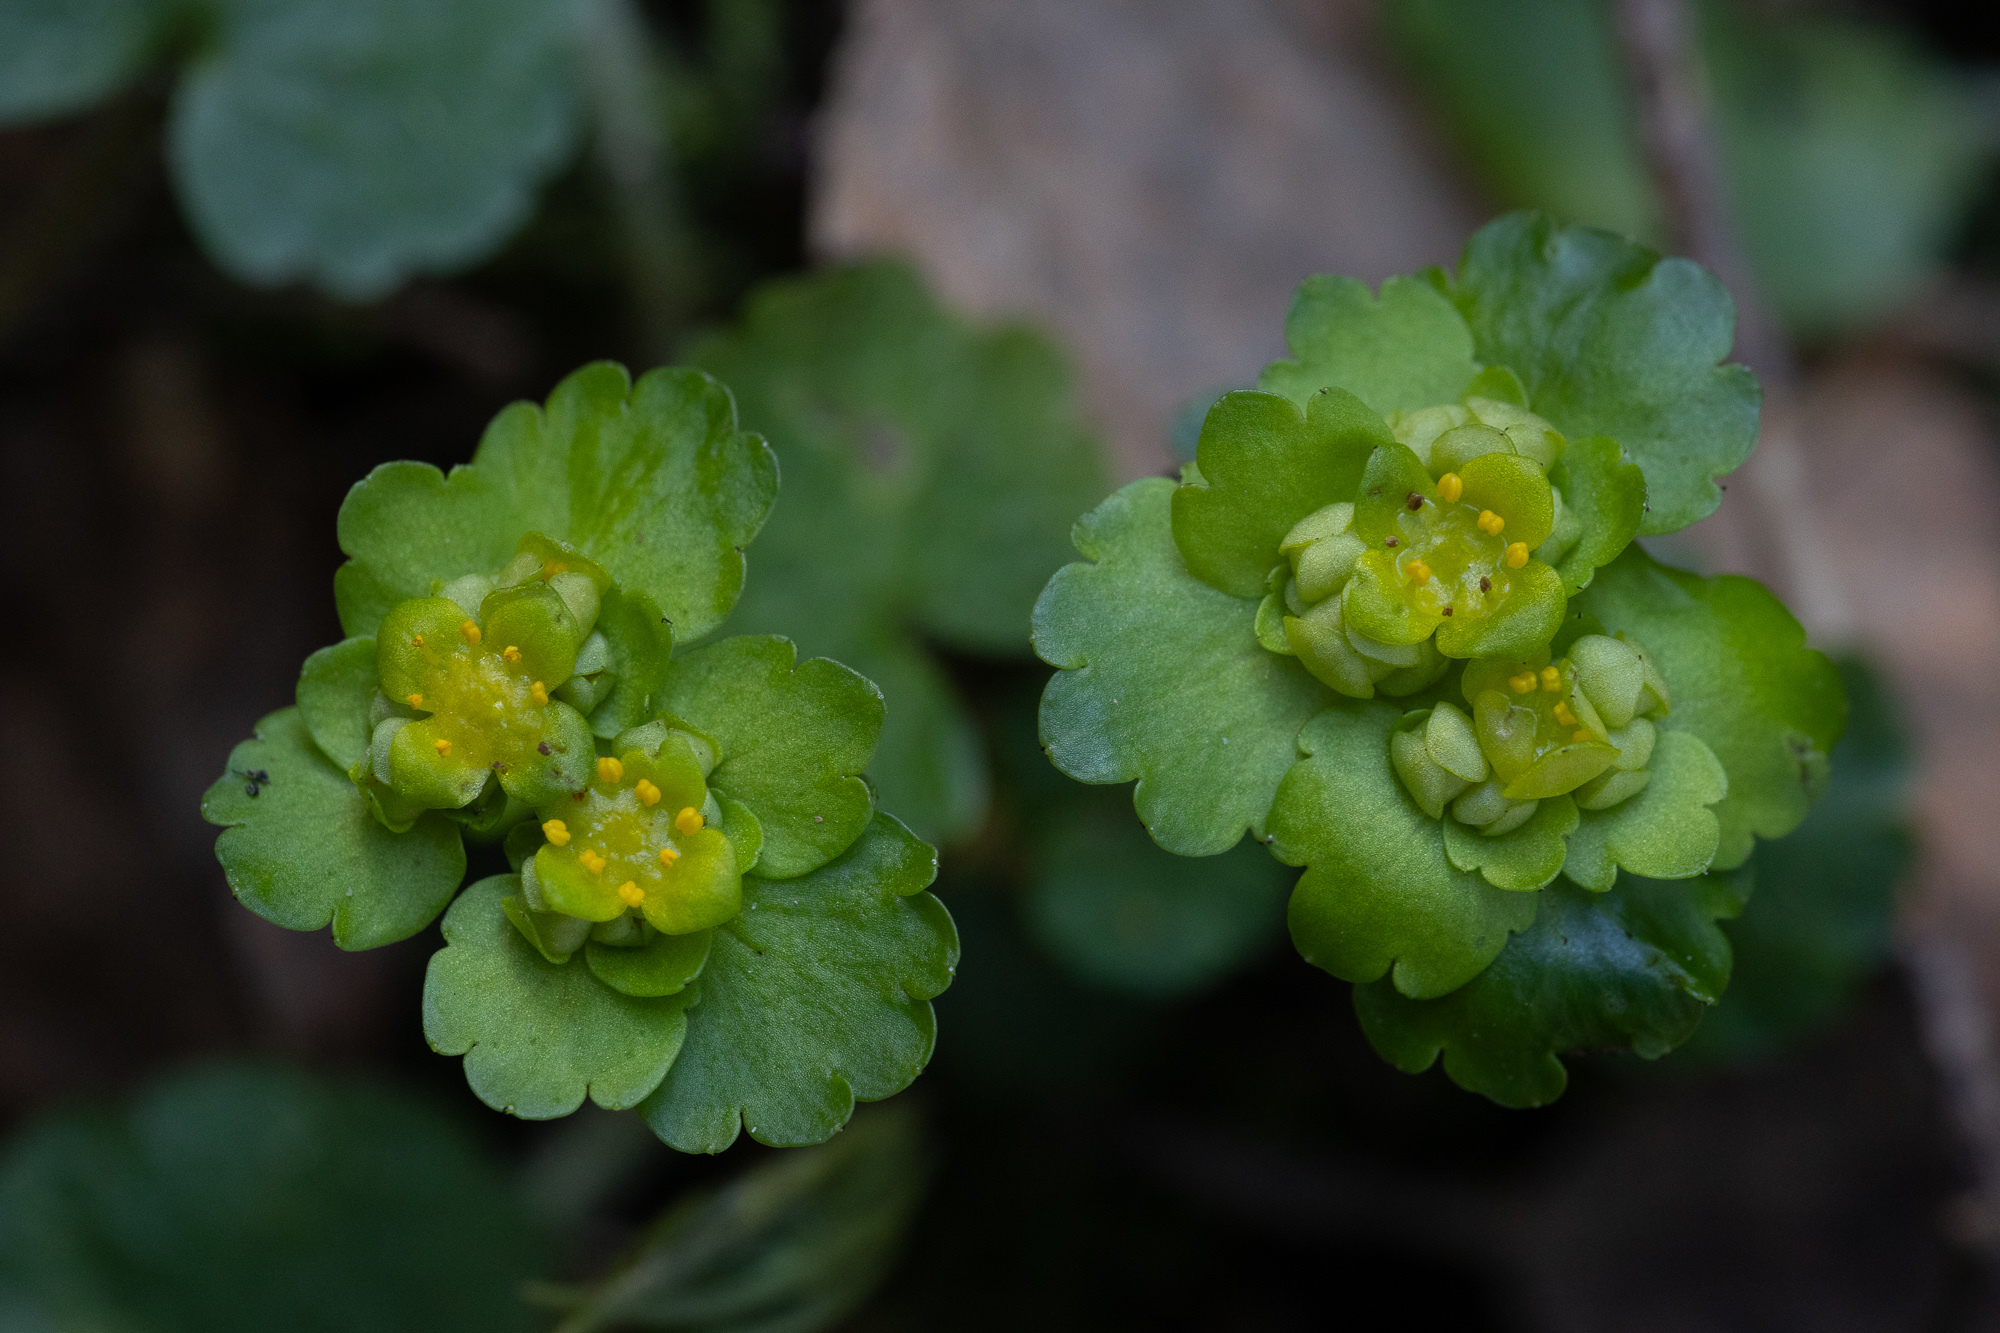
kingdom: Plantae
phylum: Tracheophyta
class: Magnoliopsida
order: Saxifragales
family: Saxifragaceae
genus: Chrysosplenium
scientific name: Chrysosplenium alternifolium
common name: Alternate-leaved golden-saxifrage
